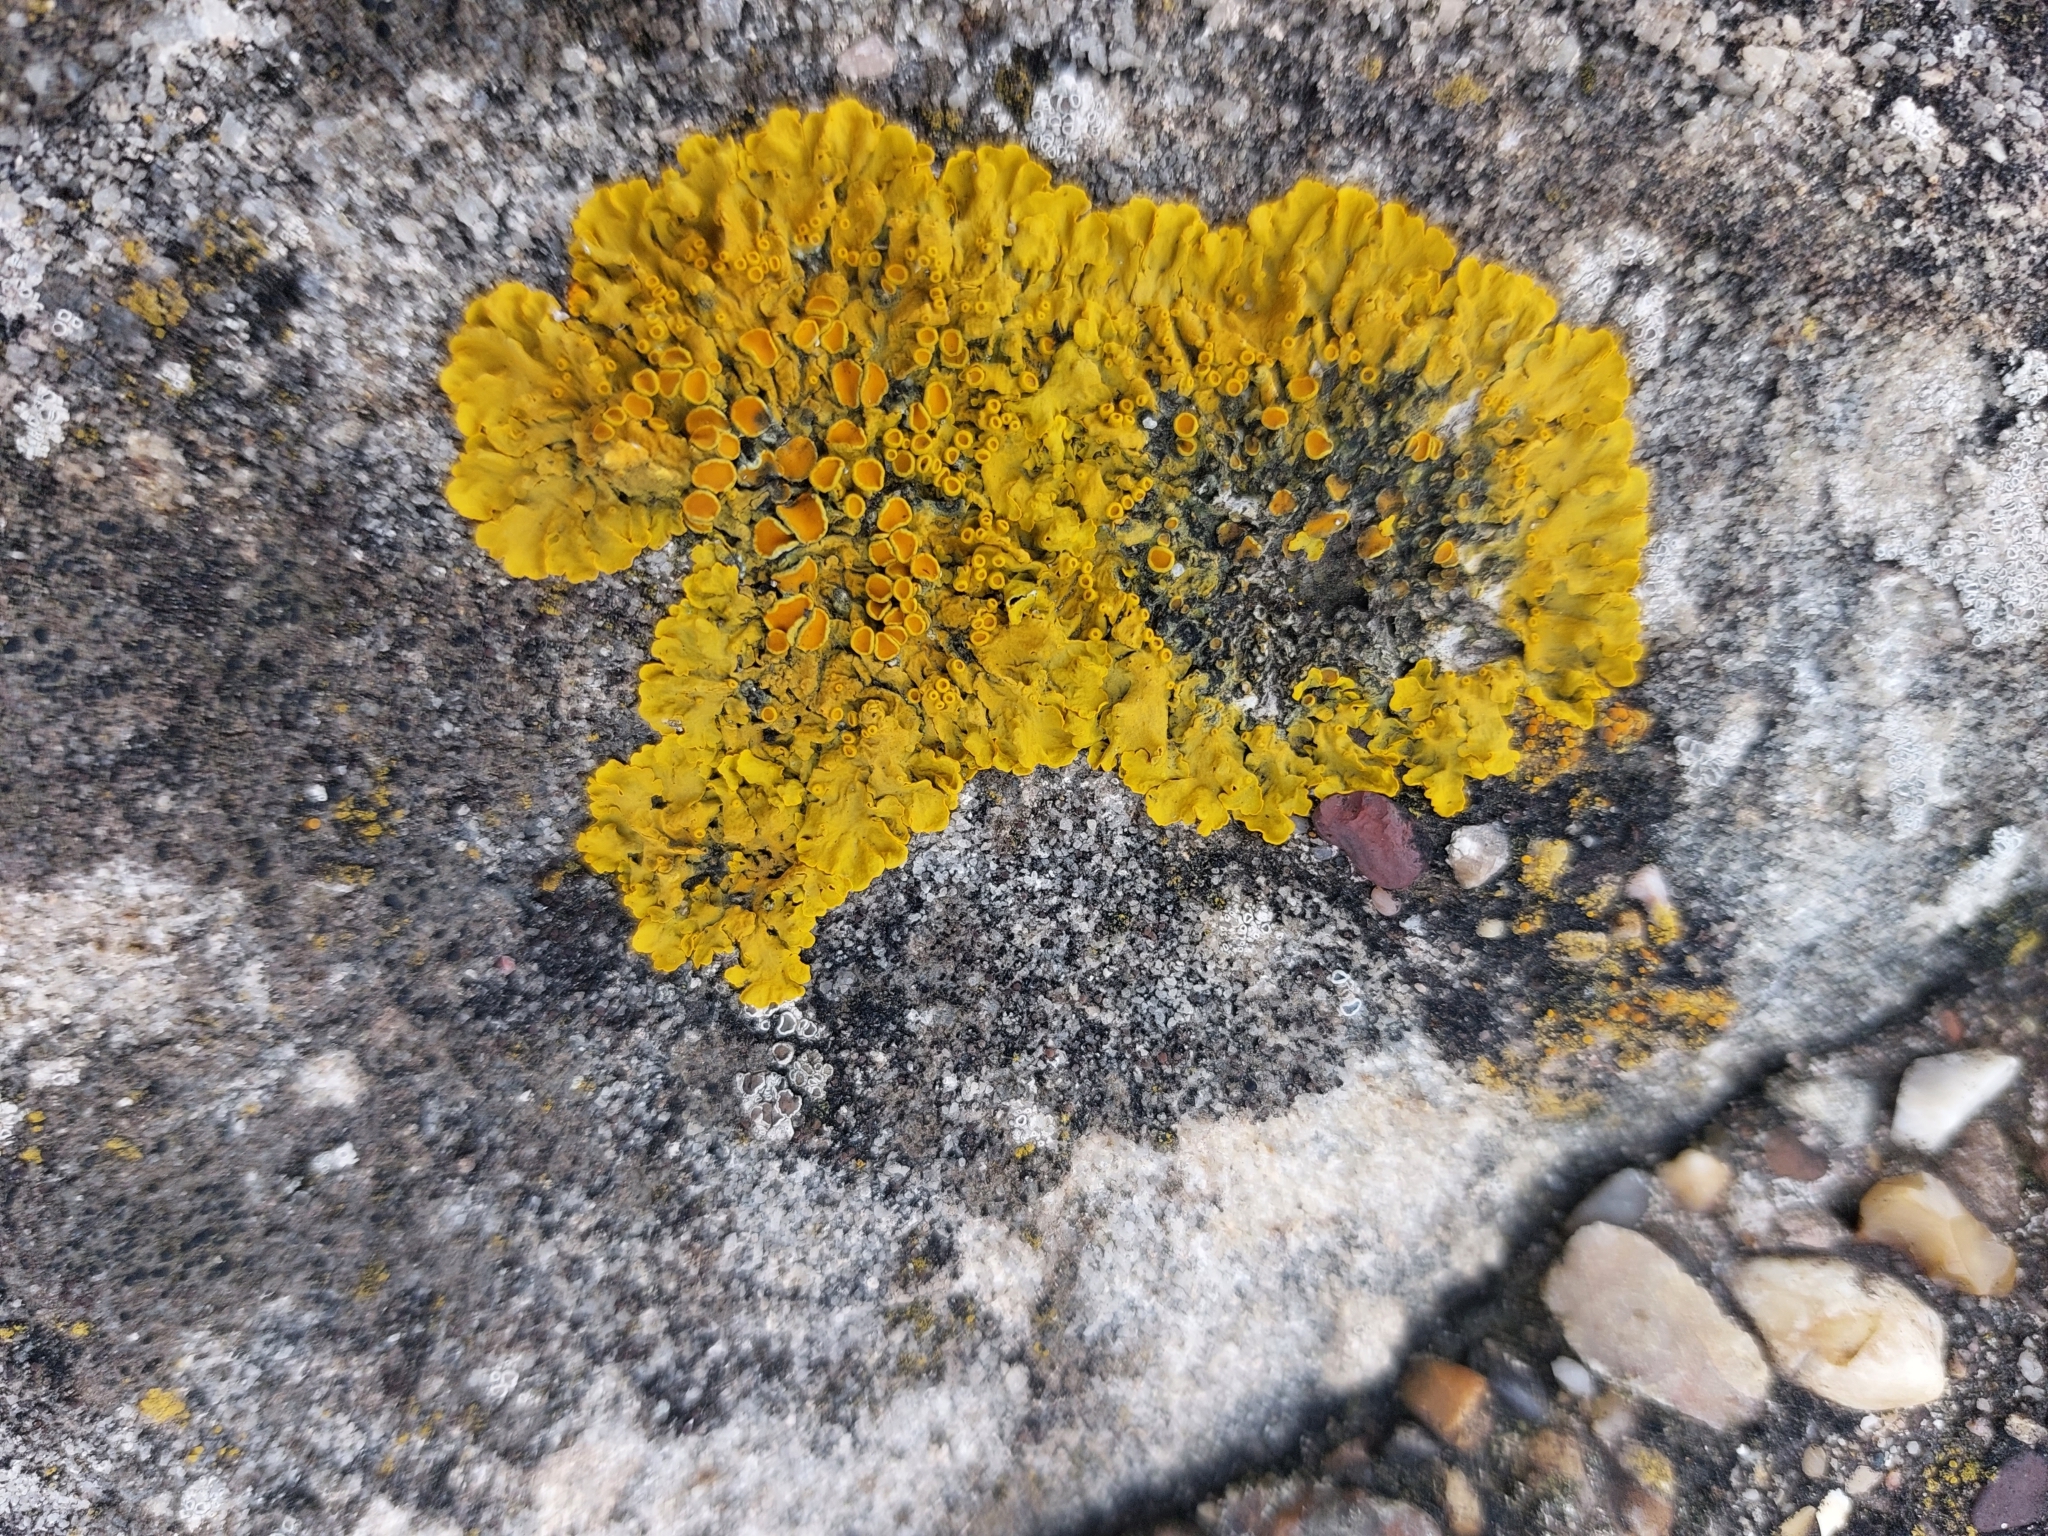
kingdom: Fungi
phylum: Ascomycota
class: Lecanoromycetes
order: Teloschistales
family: Teloschistaceae
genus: Xanthoria
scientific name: Xanthoria parietina
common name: Common orange lichen
